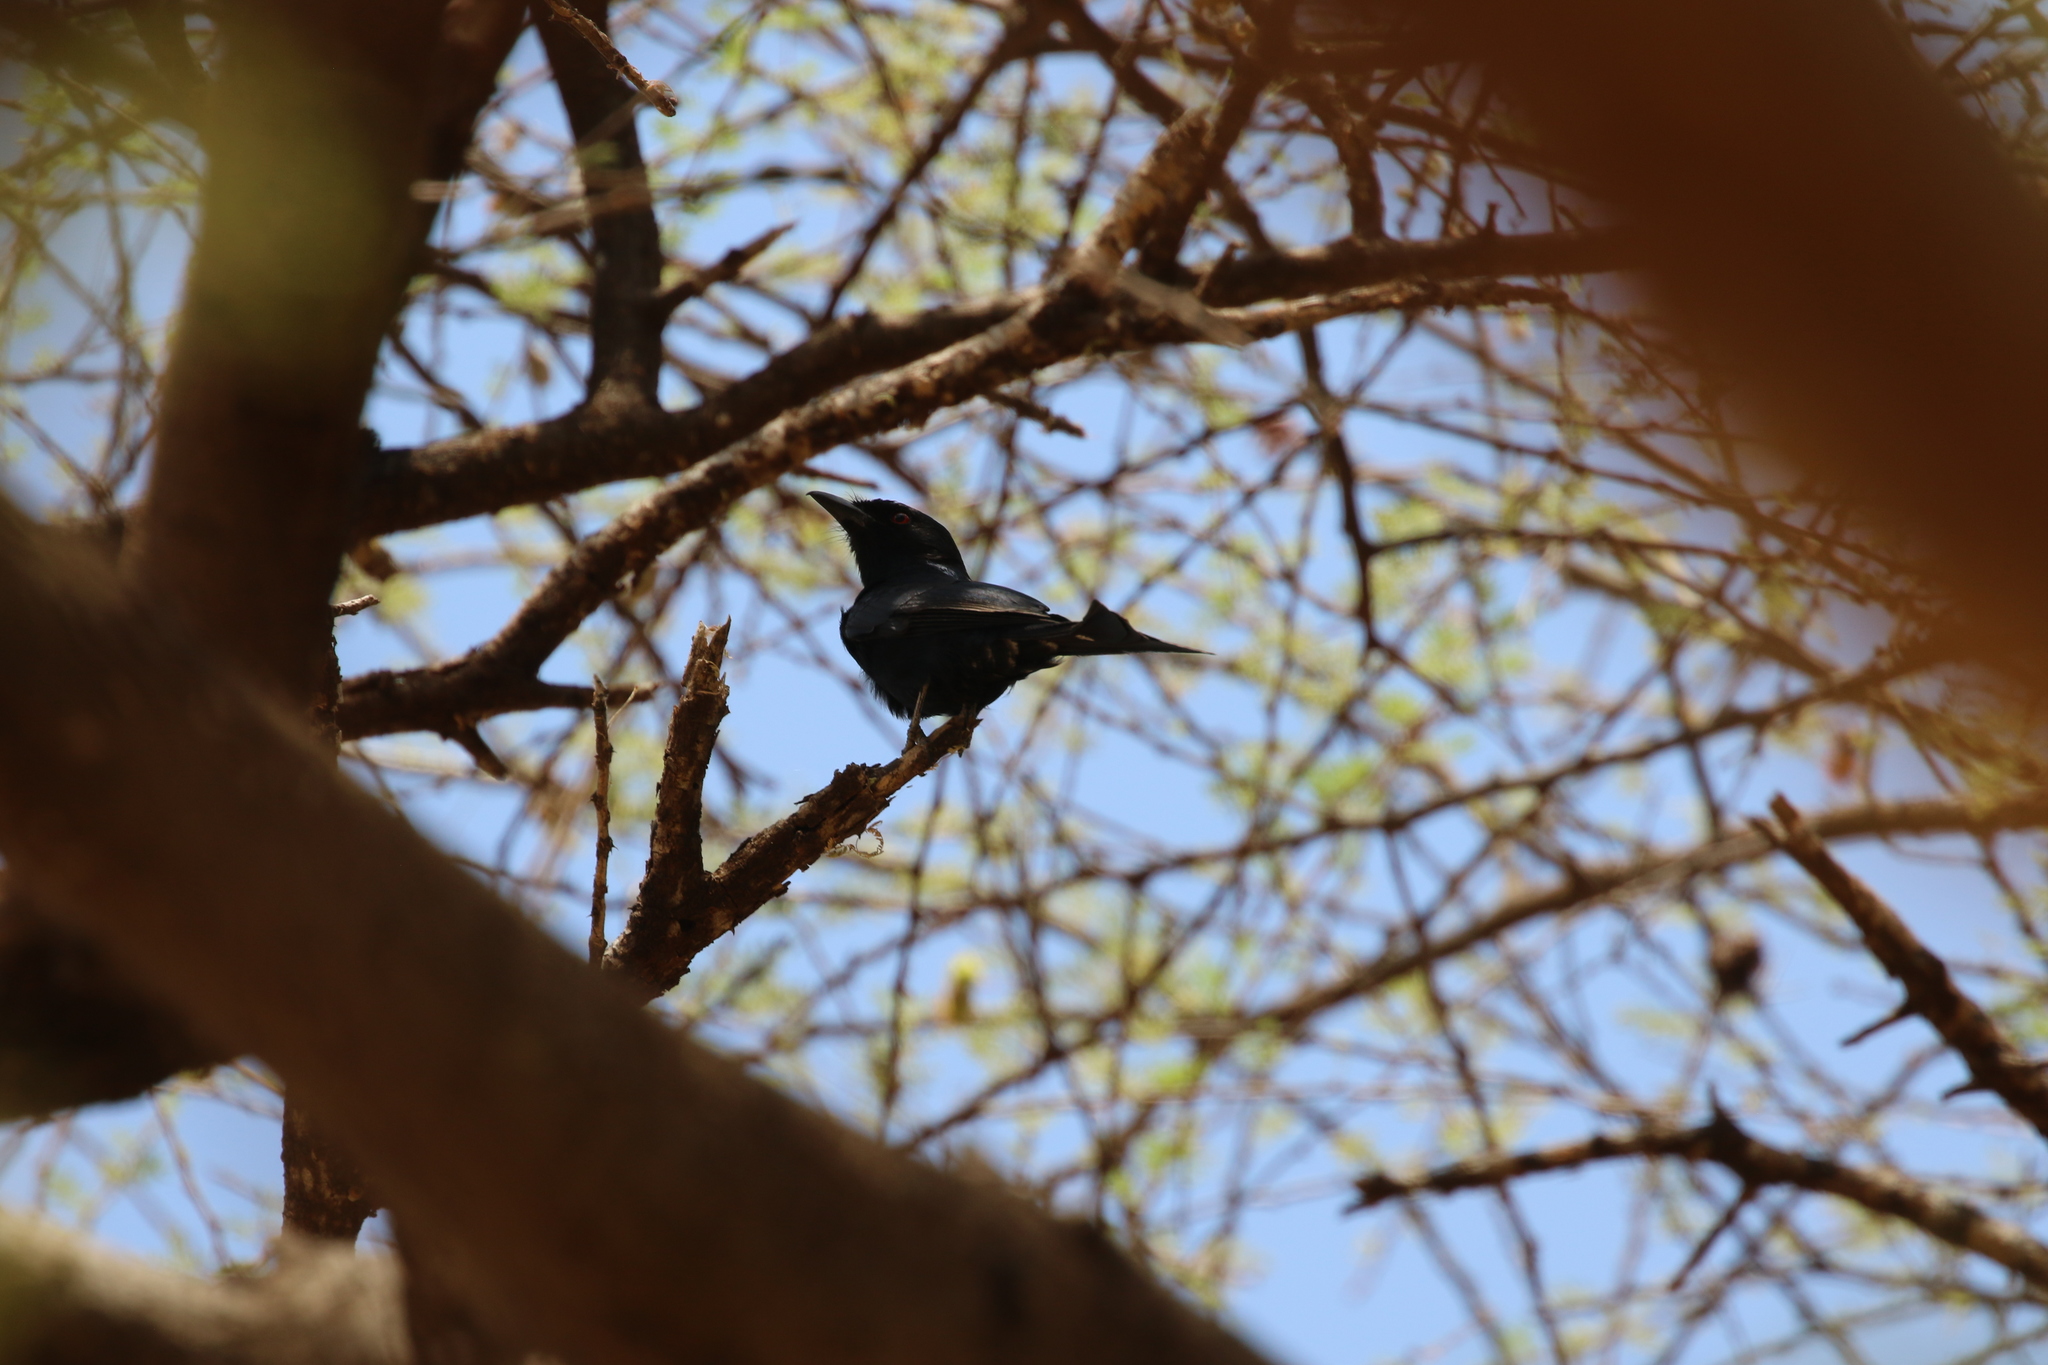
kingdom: Animalia
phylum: Chordata
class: Aves
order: Passeriformes
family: Dicruridae
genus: Dicrurus
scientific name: Dicrurus adsimilis
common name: Fork-tailed drongo
